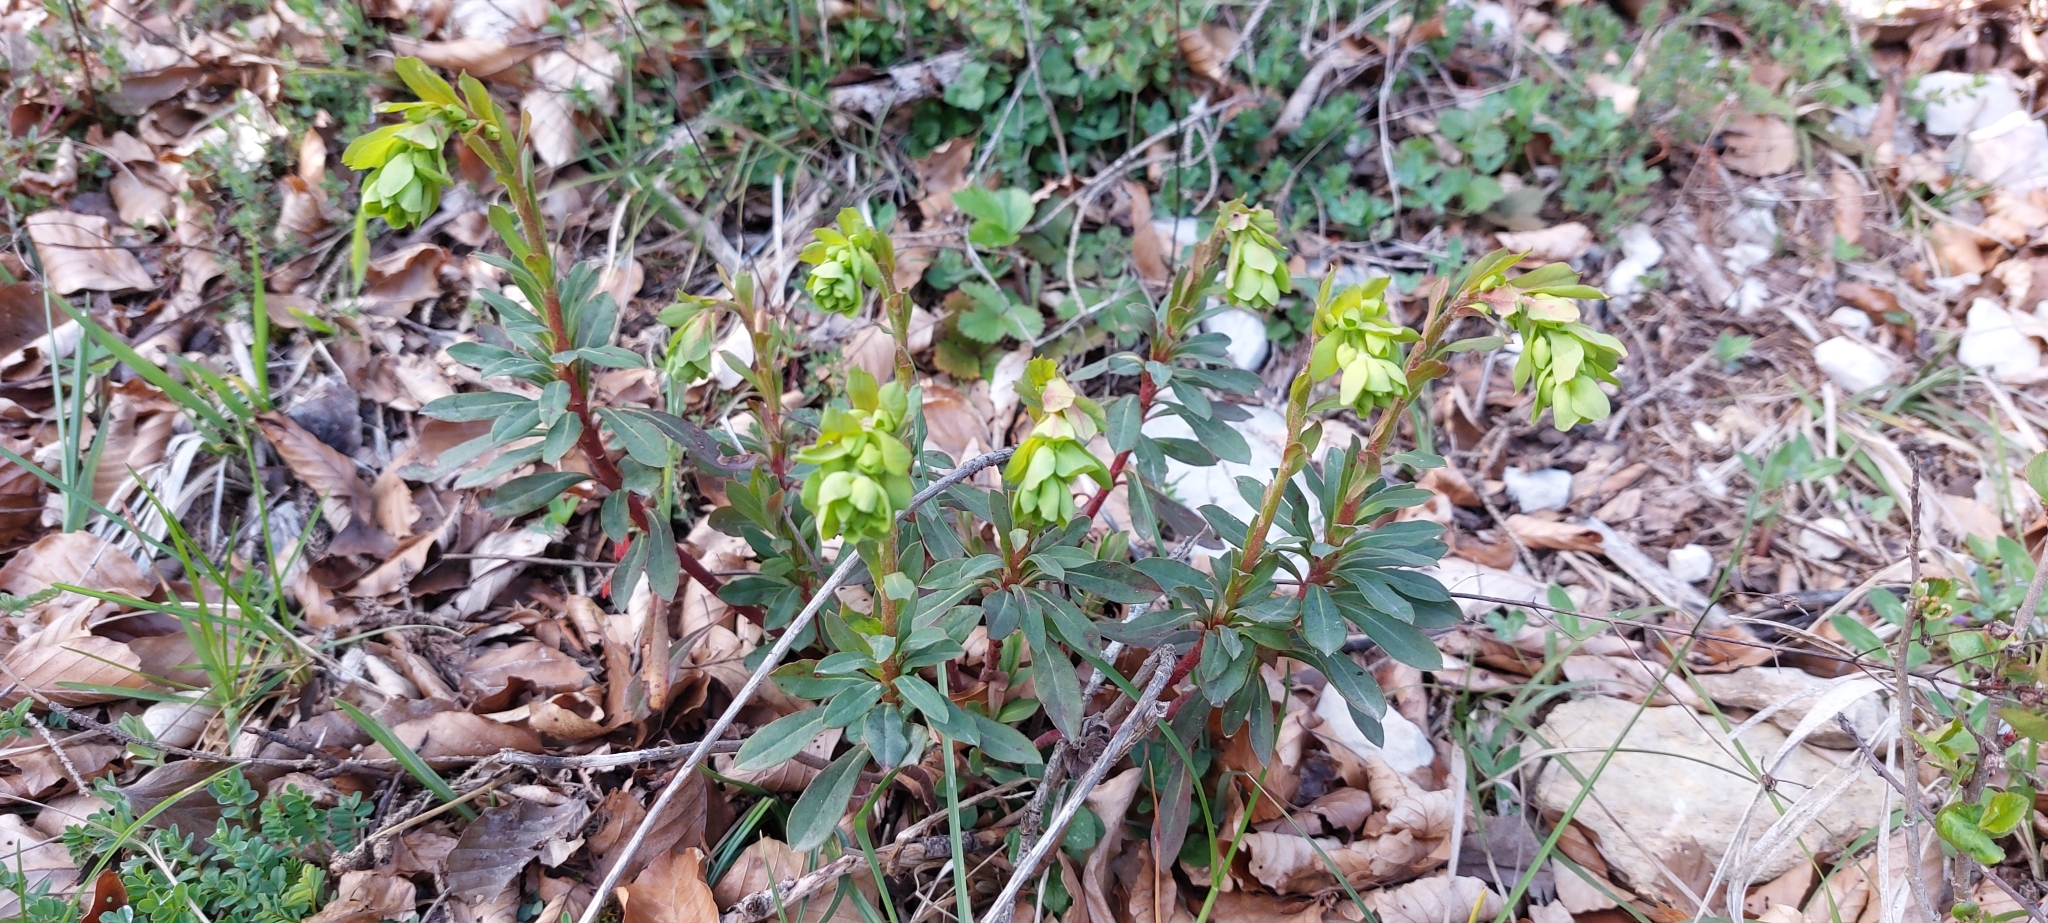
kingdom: Plantae
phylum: Tracheophyta
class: Magnoliopsida
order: Malpighiales
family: Euphorbiaceae
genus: Euphorbia
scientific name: Euphorbia amygdaloides
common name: Wood spurge
